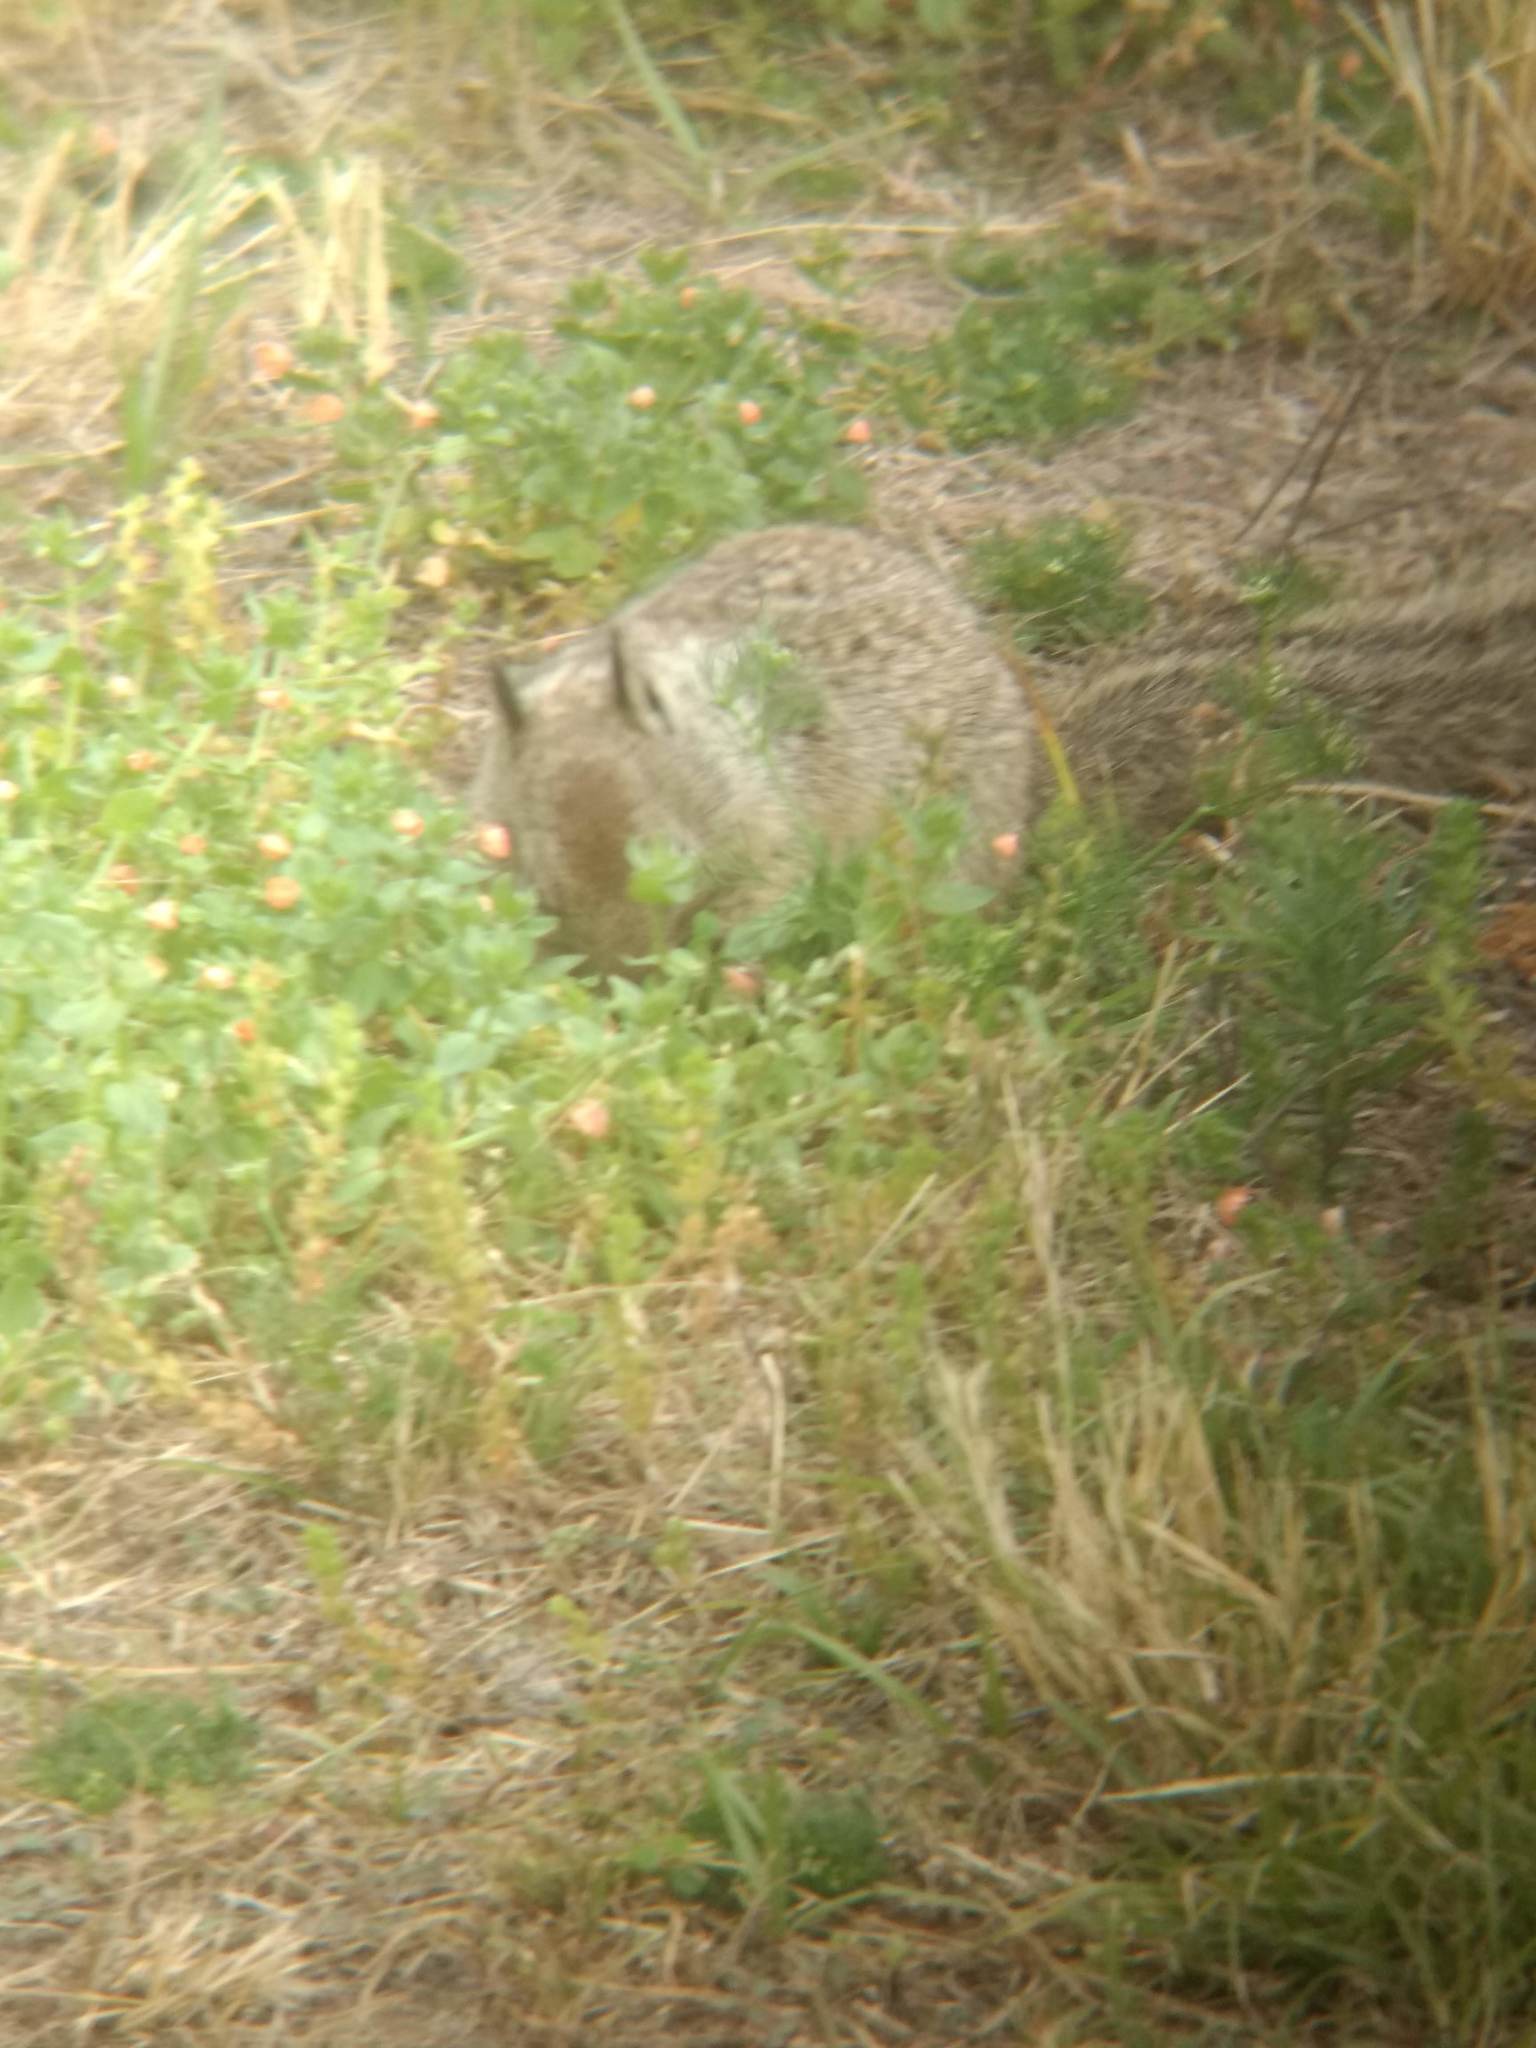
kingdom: Animalia
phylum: Chordata
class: Mammalia
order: Rodentia
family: Sciuridae
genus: Otospermophilus
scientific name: Otospermophilus beecheyi
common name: California ground squirrel
